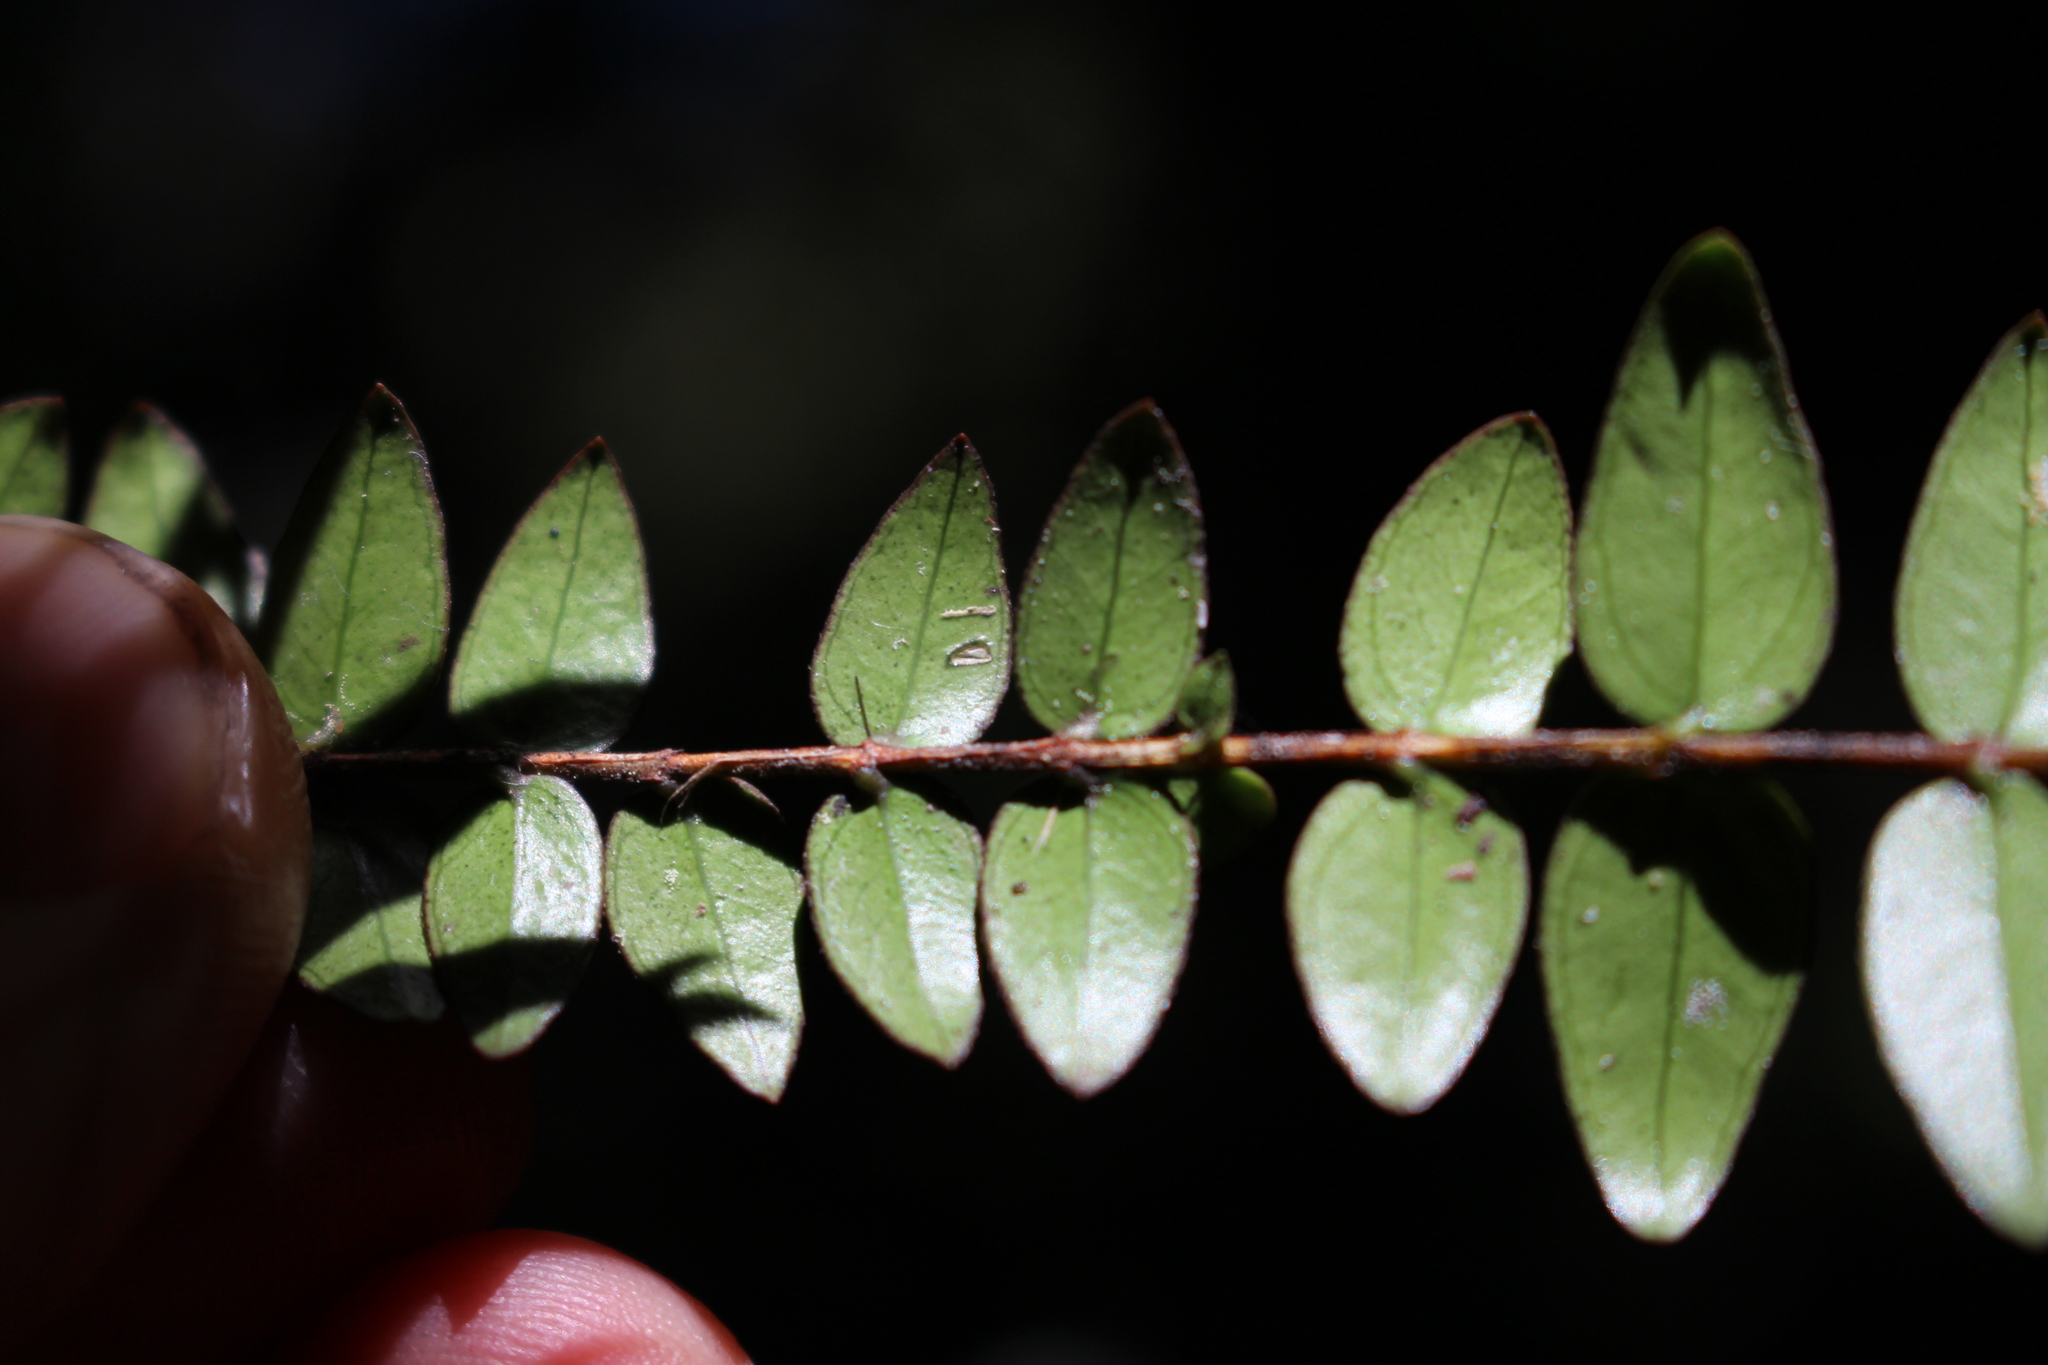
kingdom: Plantae
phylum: Tracheophyta
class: Magnoliopsida
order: Myrtales
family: Myrtaceae
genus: Metrosideros
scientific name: Metrosideros diffusa
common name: Small ratavine
